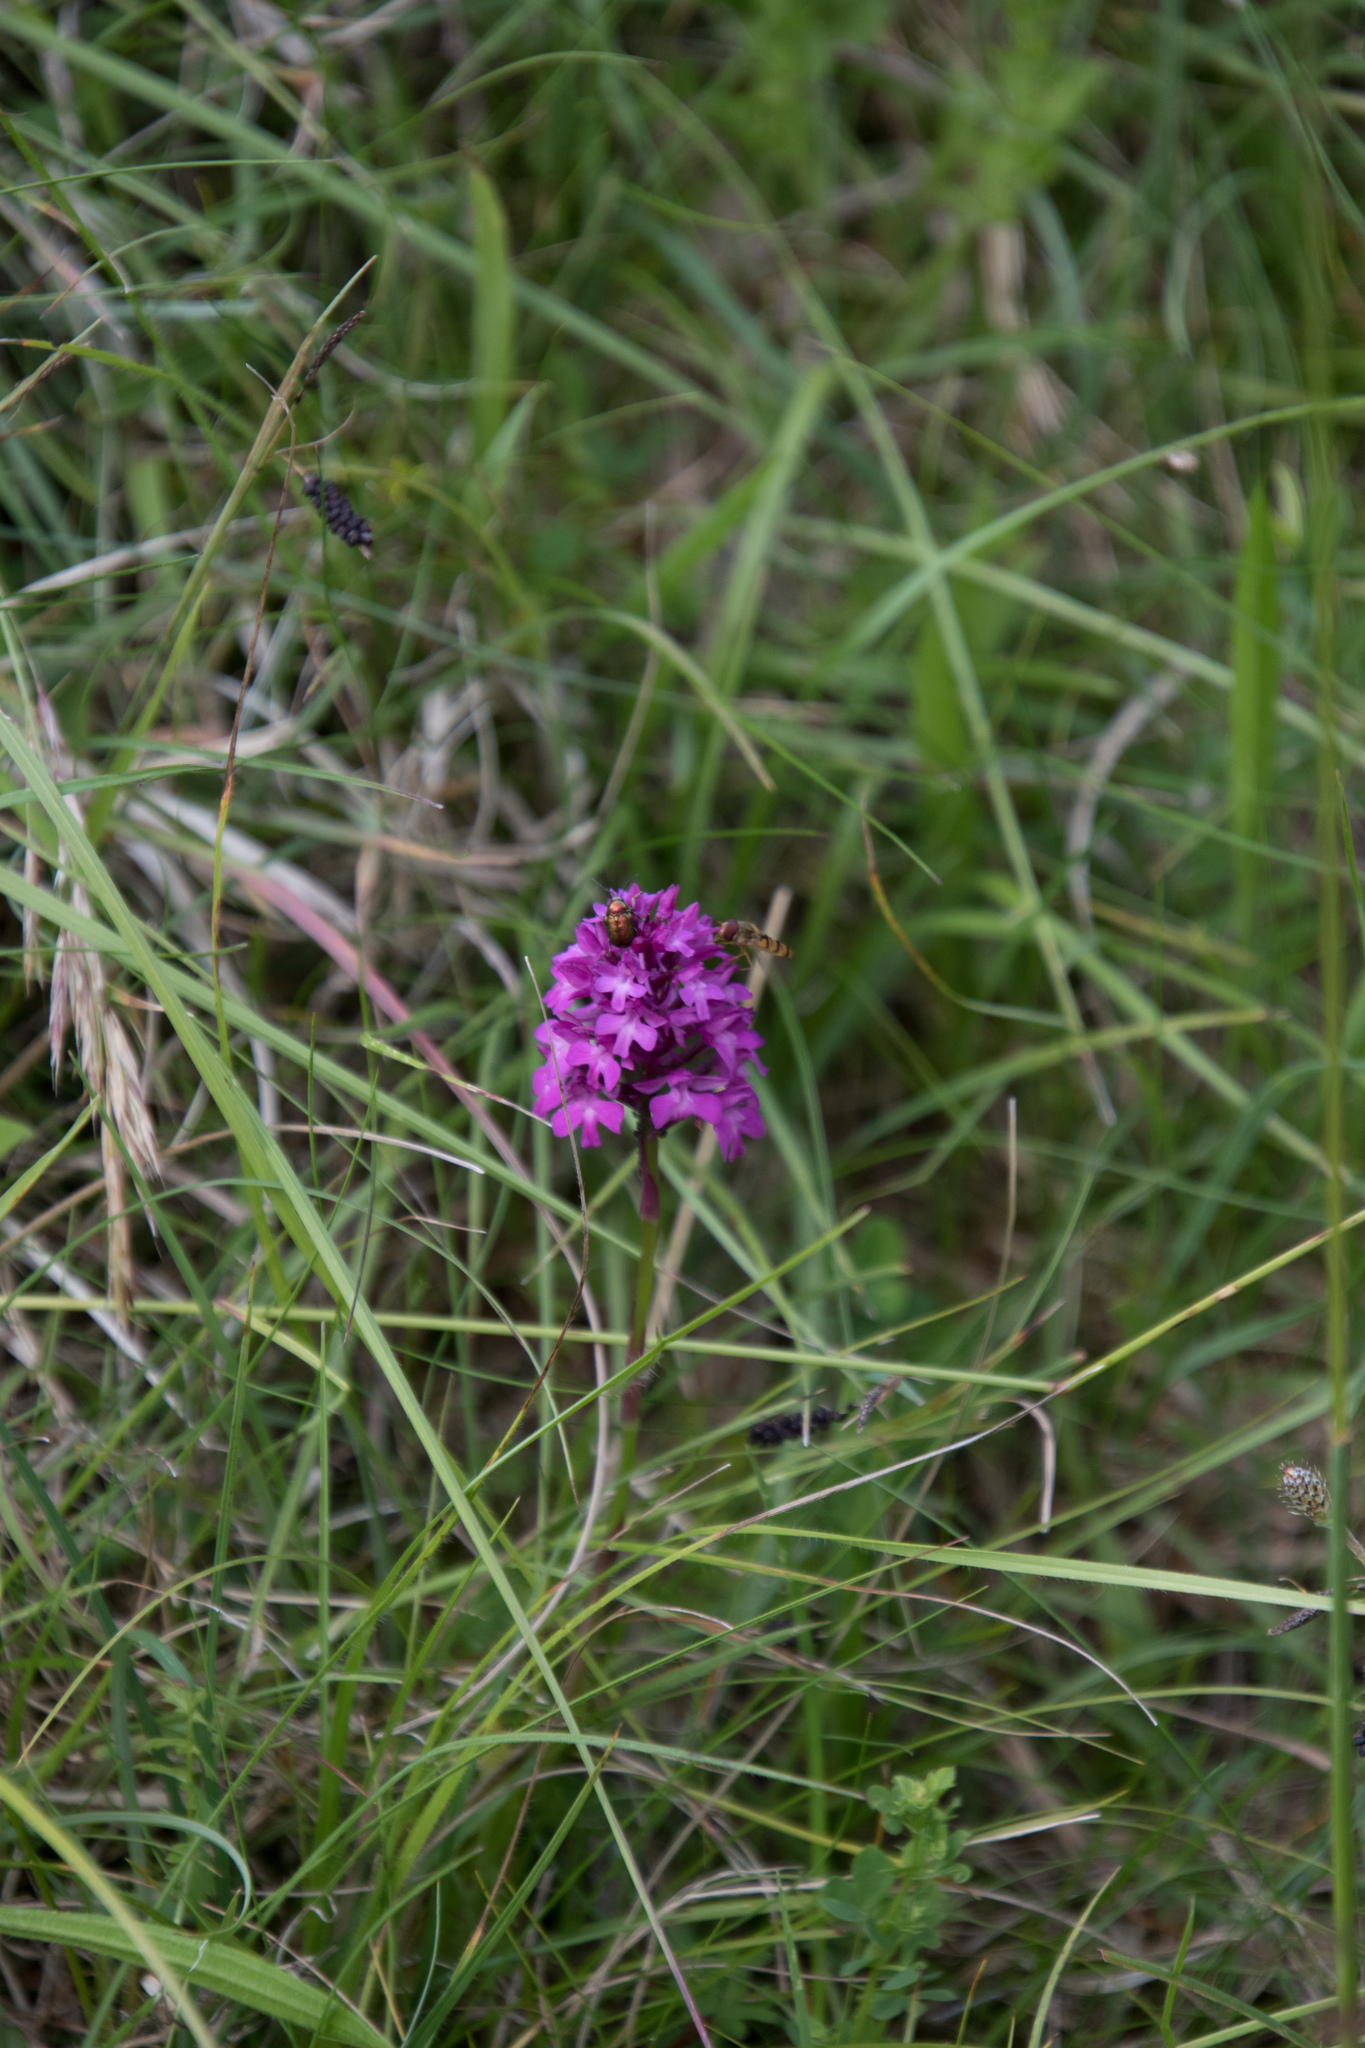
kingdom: Plantae
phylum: Tracheophyta
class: Liliopsida
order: Asparagales
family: Orchidaceae
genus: Anacamptis
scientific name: Anacamptis pyramidalis
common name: Pyramidal orchid
